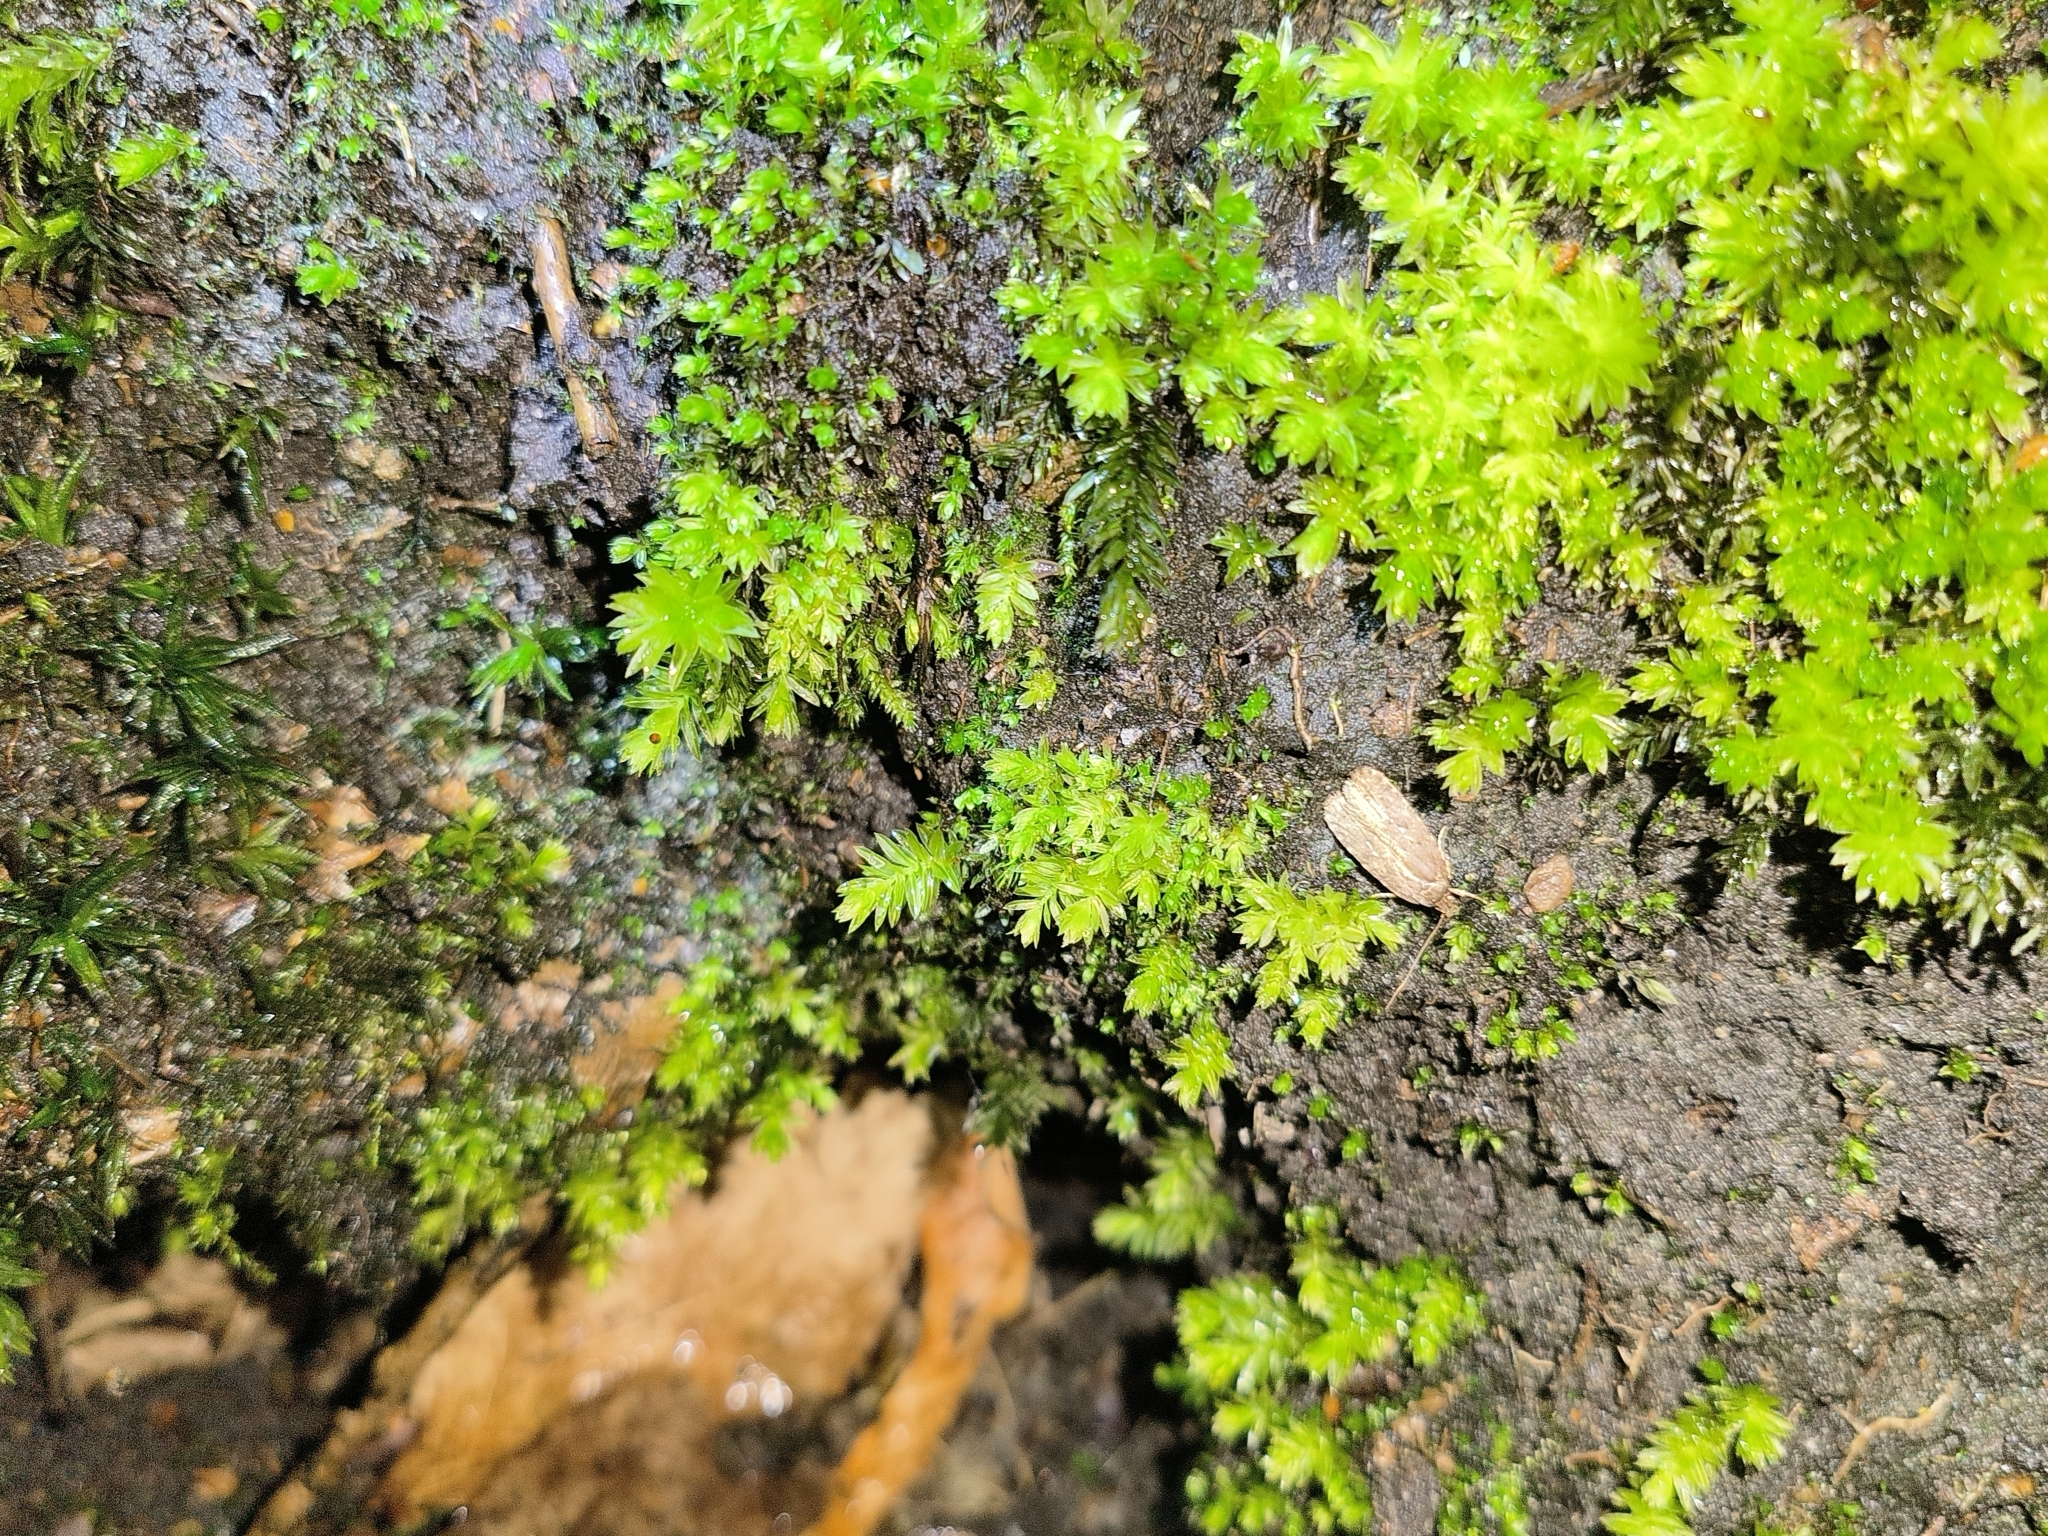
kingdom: Animalia
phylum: Arthropoda
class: Insecta
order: Lepidoptera
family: Depressariidae
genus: Agonopterix
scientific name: Agonopterix
